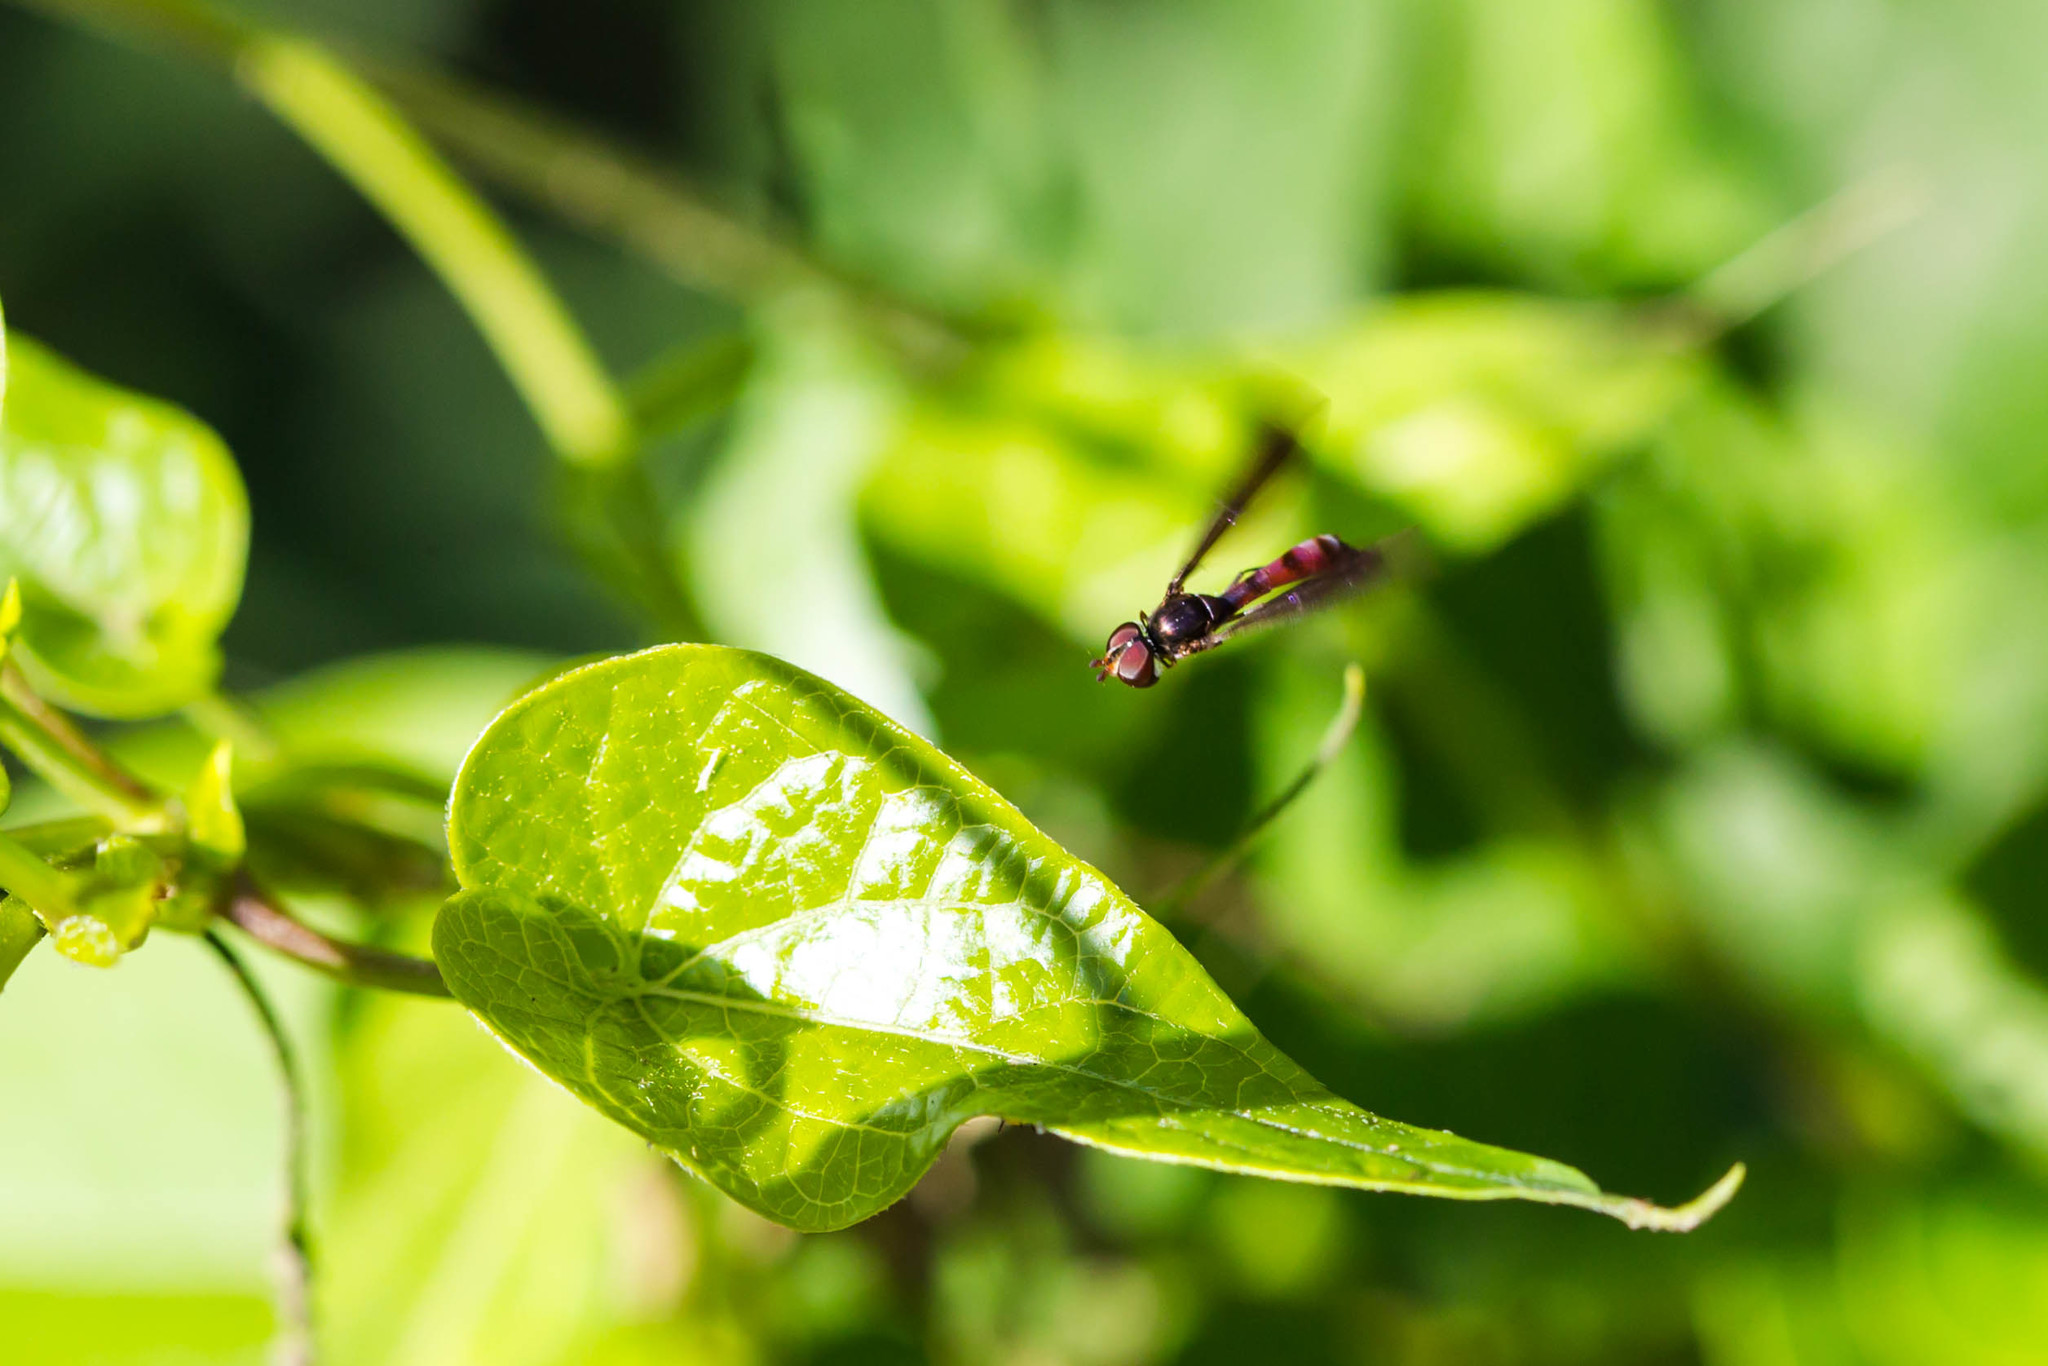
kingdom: Animalia
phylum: Arthropoda
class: Insecta
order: Diptera
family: Syrphidae
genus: Ocyptamus
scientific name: Ocyptamus fuscipennis
